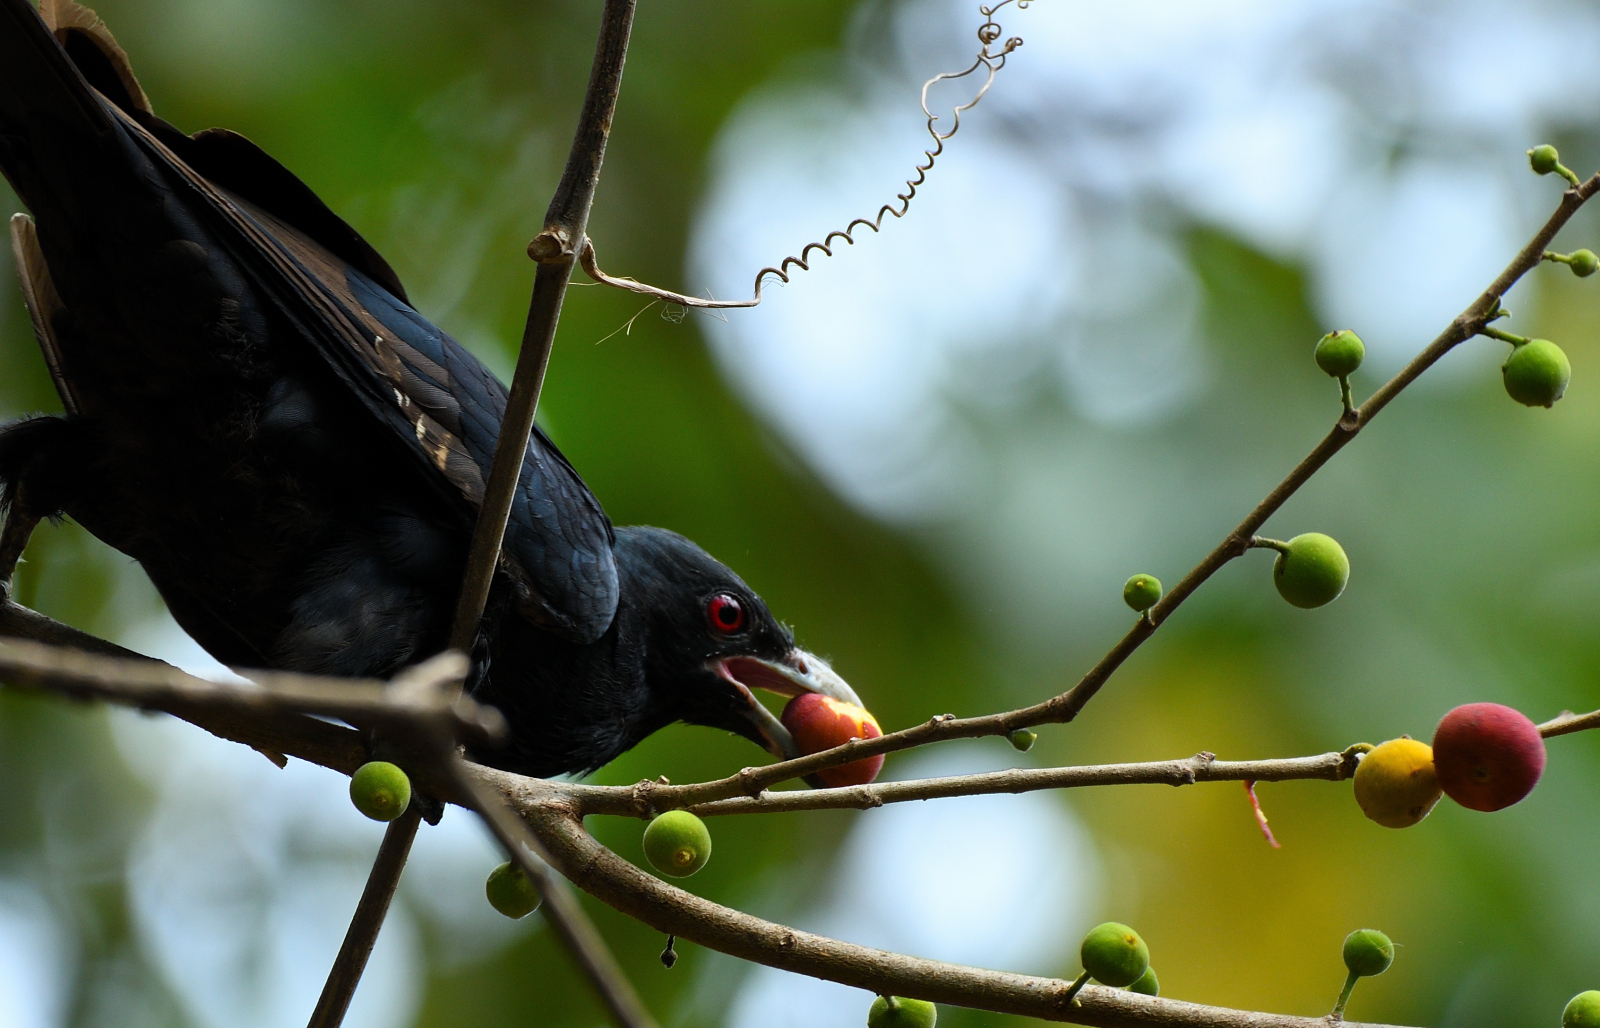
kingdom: Animalia
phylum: Chordata
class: Aves
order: Cuculiformes
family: Cuculidae
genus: Eudynamys
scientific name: Eudynamys scolopaceus
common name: Asian koel
